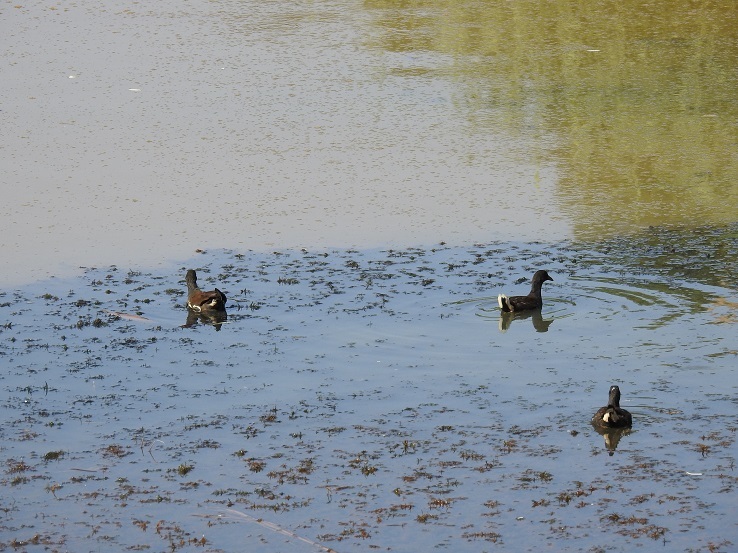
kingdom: Animalia
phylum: Chordata
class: Aves
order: Gruiformes
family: Rallidae
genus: Gallinula
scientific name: Gallinula chloropus
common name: Common moorhen
